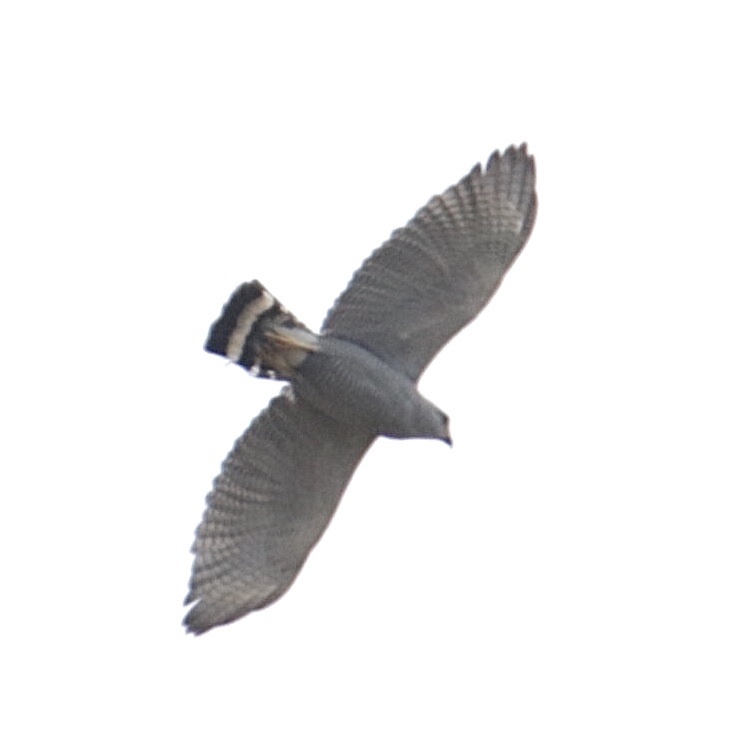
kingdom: Animalia
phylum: Chordata
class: Aves
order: Accipitriformes
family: Accipitridae
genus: Buteo
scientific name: Buteo nitidus
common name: Grey-lined hawk
